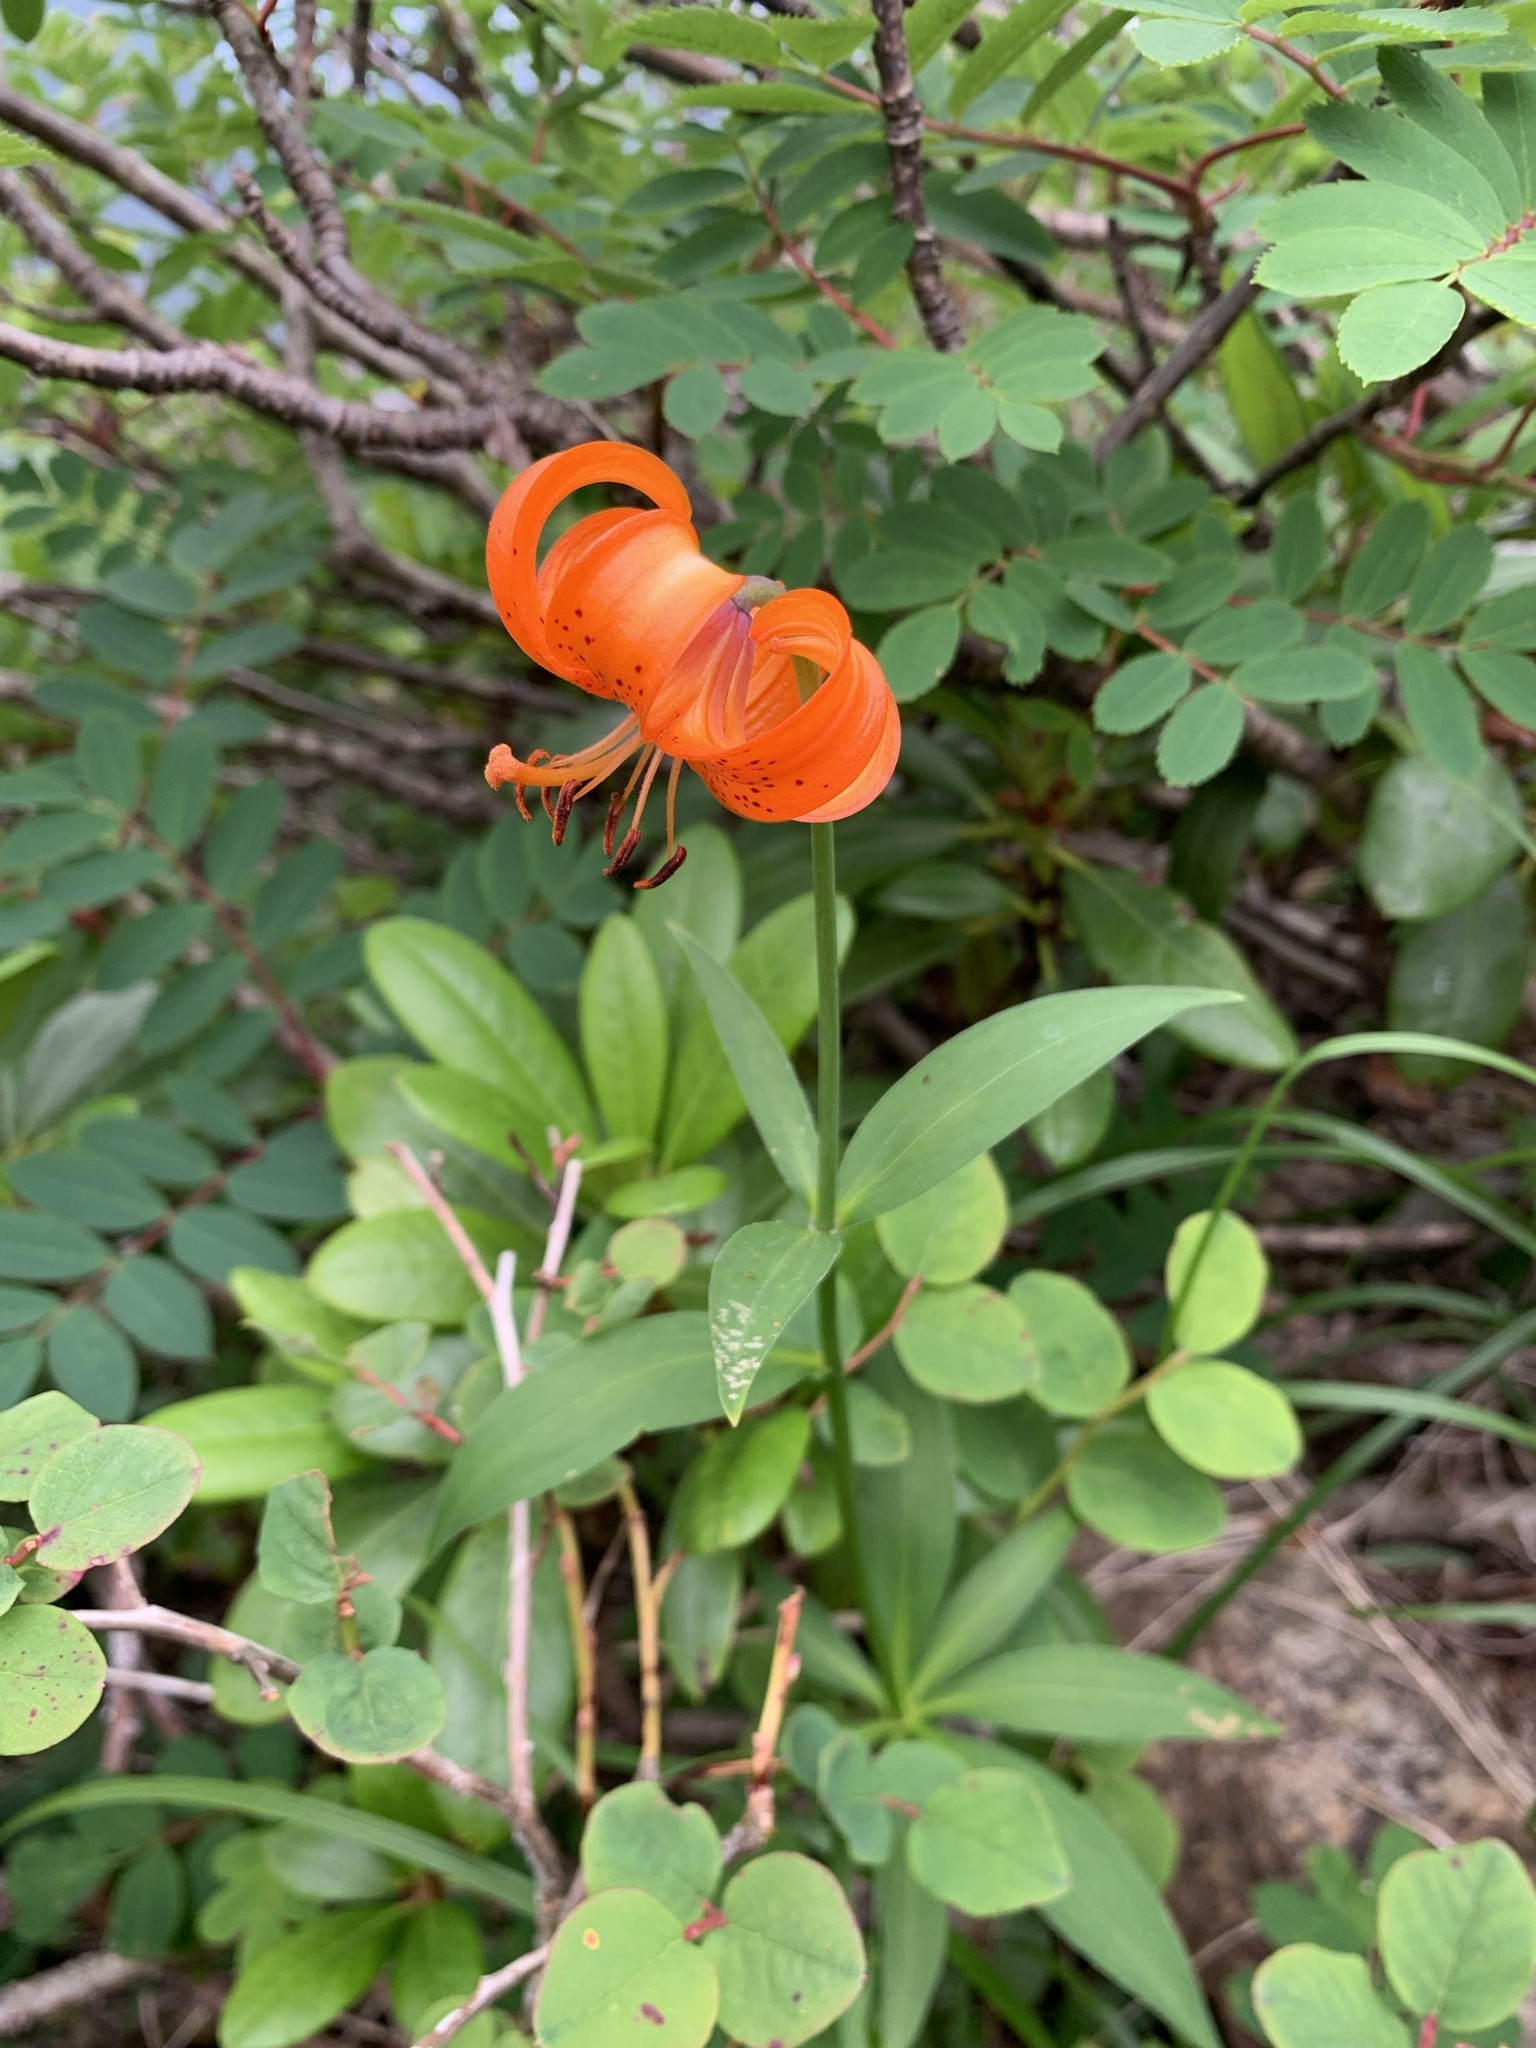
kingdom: Plantae
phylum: Tracheophyta
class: Liliopsida
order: Liliales
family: Liliaceae
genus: Lilium
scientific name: Lilium medeoloides
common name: Wheel lily
